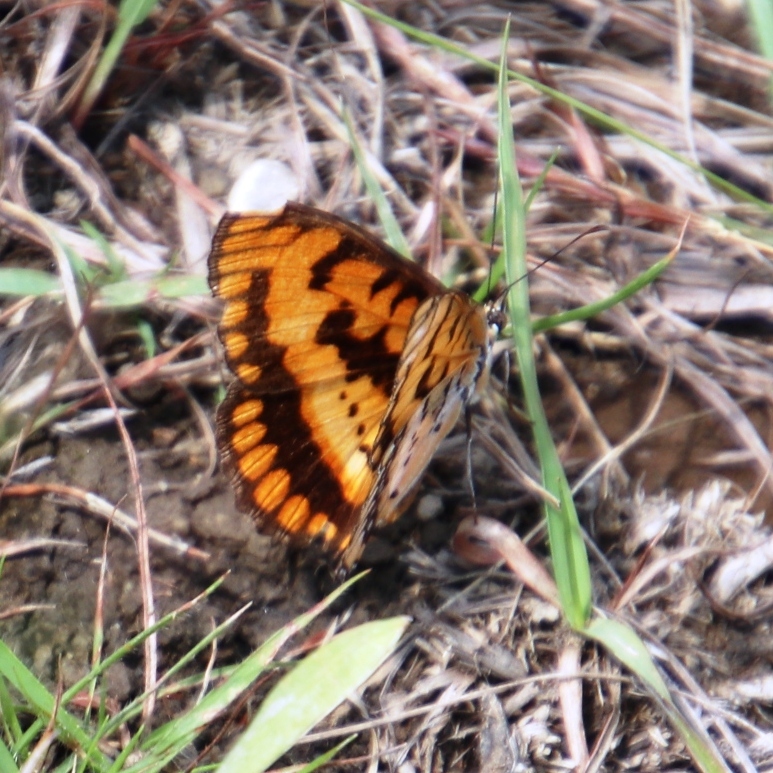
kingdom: Animalia
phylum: Arthropoda
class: Insecta
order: Lepidoptera
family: Nymphalidae
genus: Byblia
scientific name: Byblia ilithyia
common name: Spotted joker
